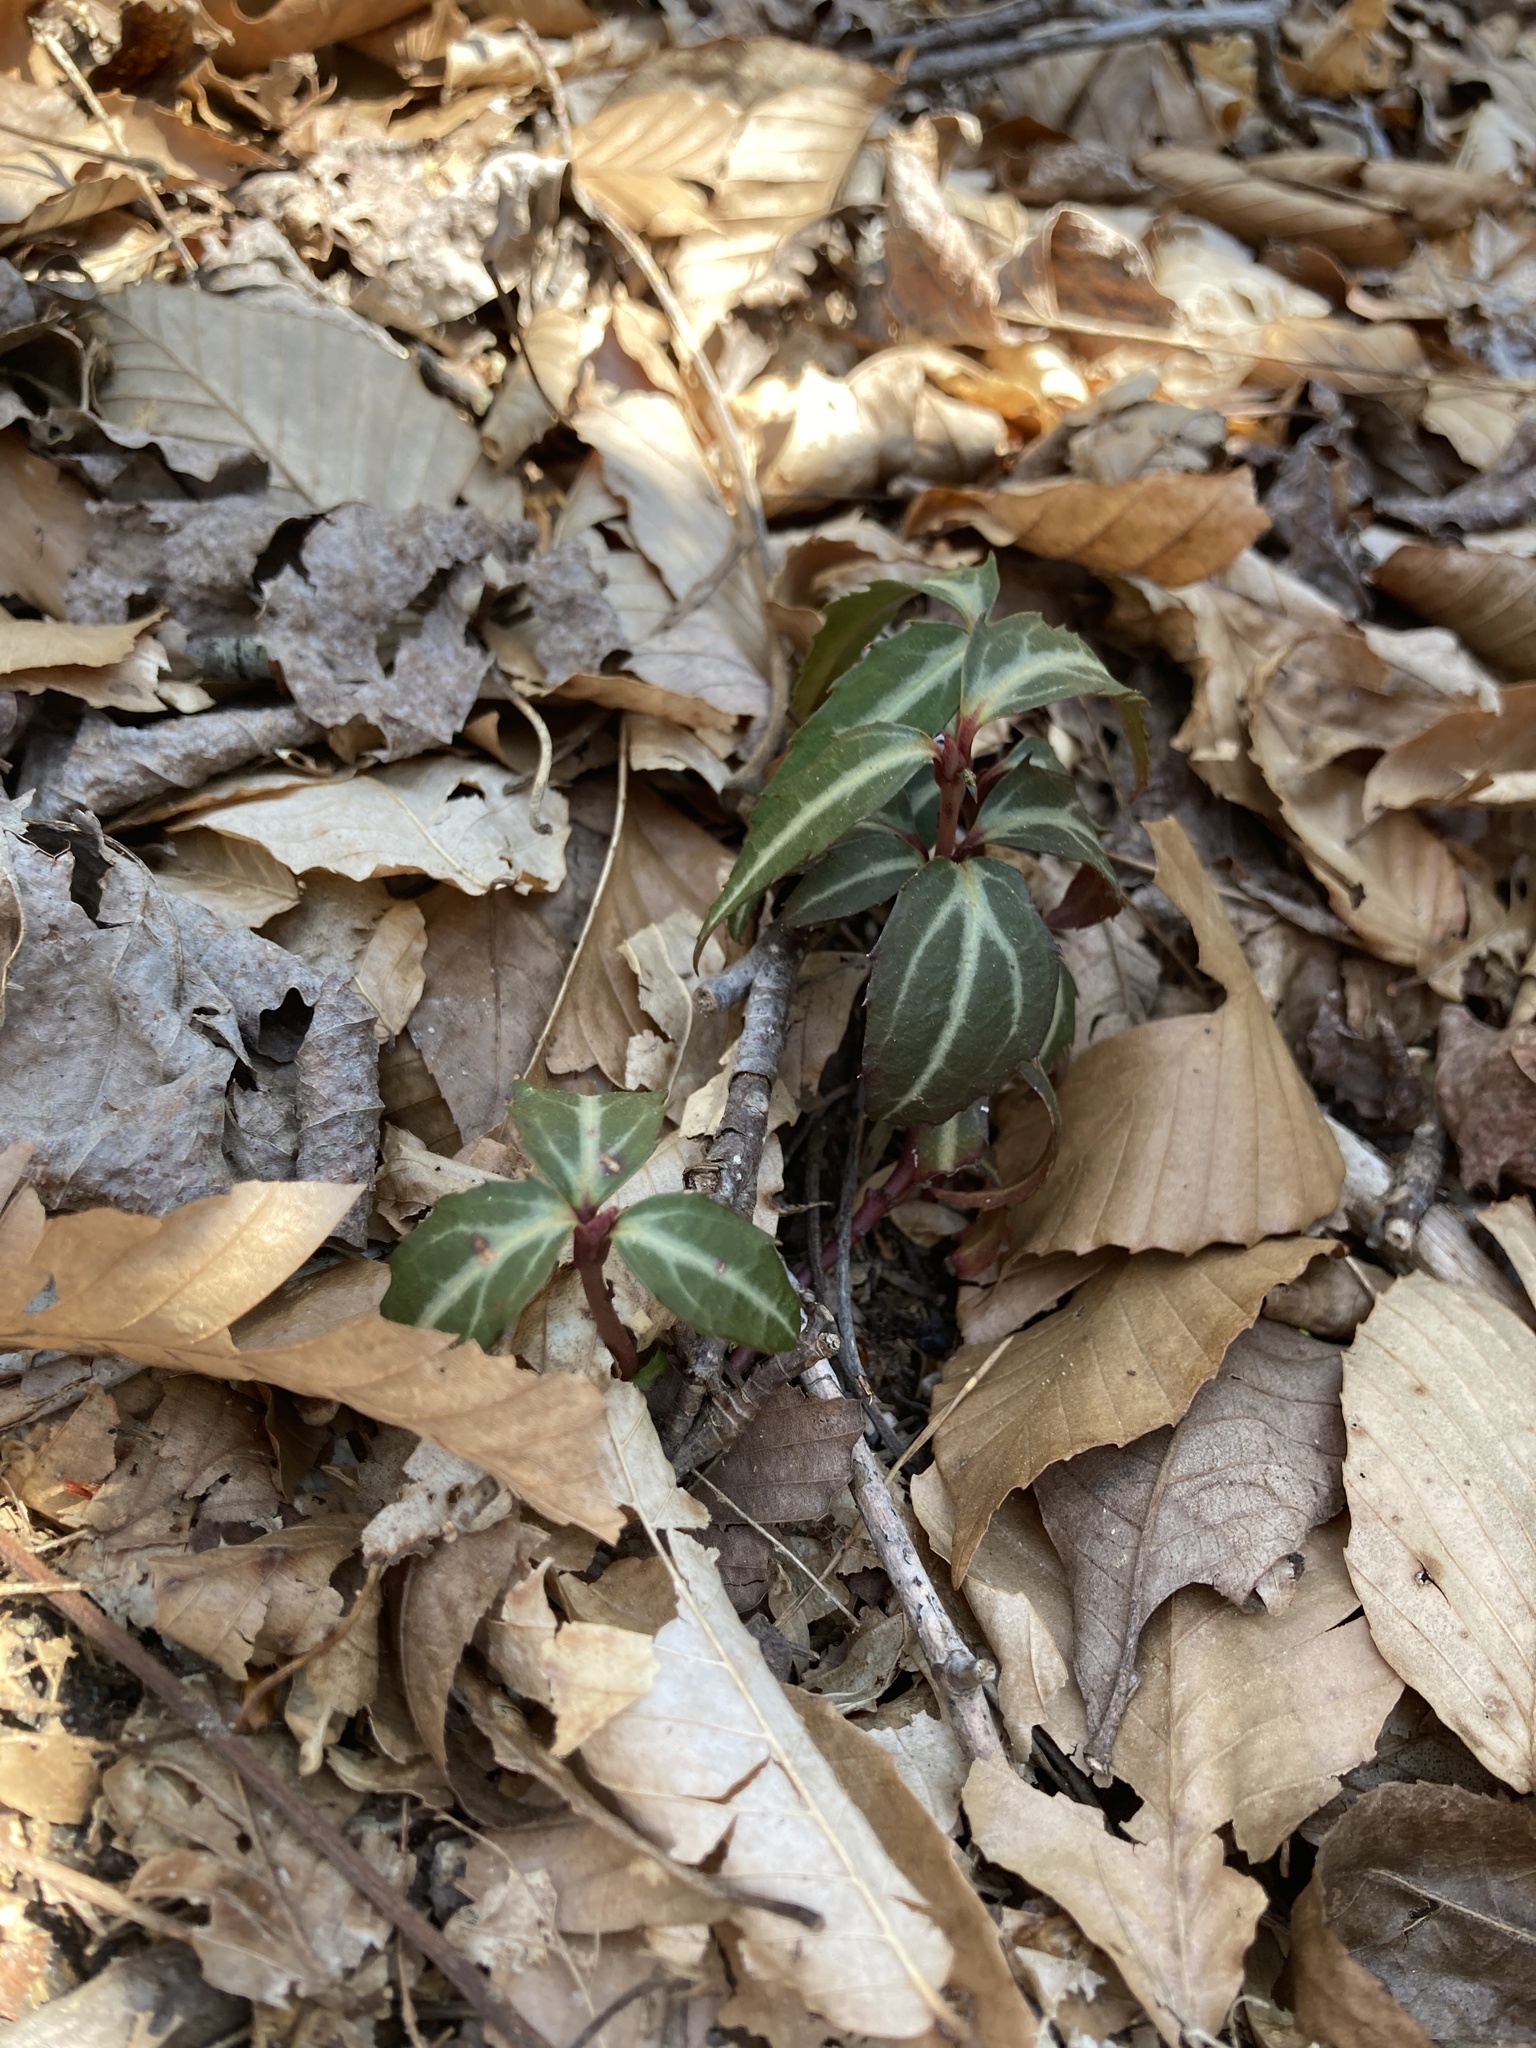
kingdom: Plantae
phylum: Tracheophyta
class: Magnoliopsida
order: Ericales
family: Ericaceae
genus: Chimaphila
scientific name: Chimaphila maculata
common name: Spotted pipsissewa
